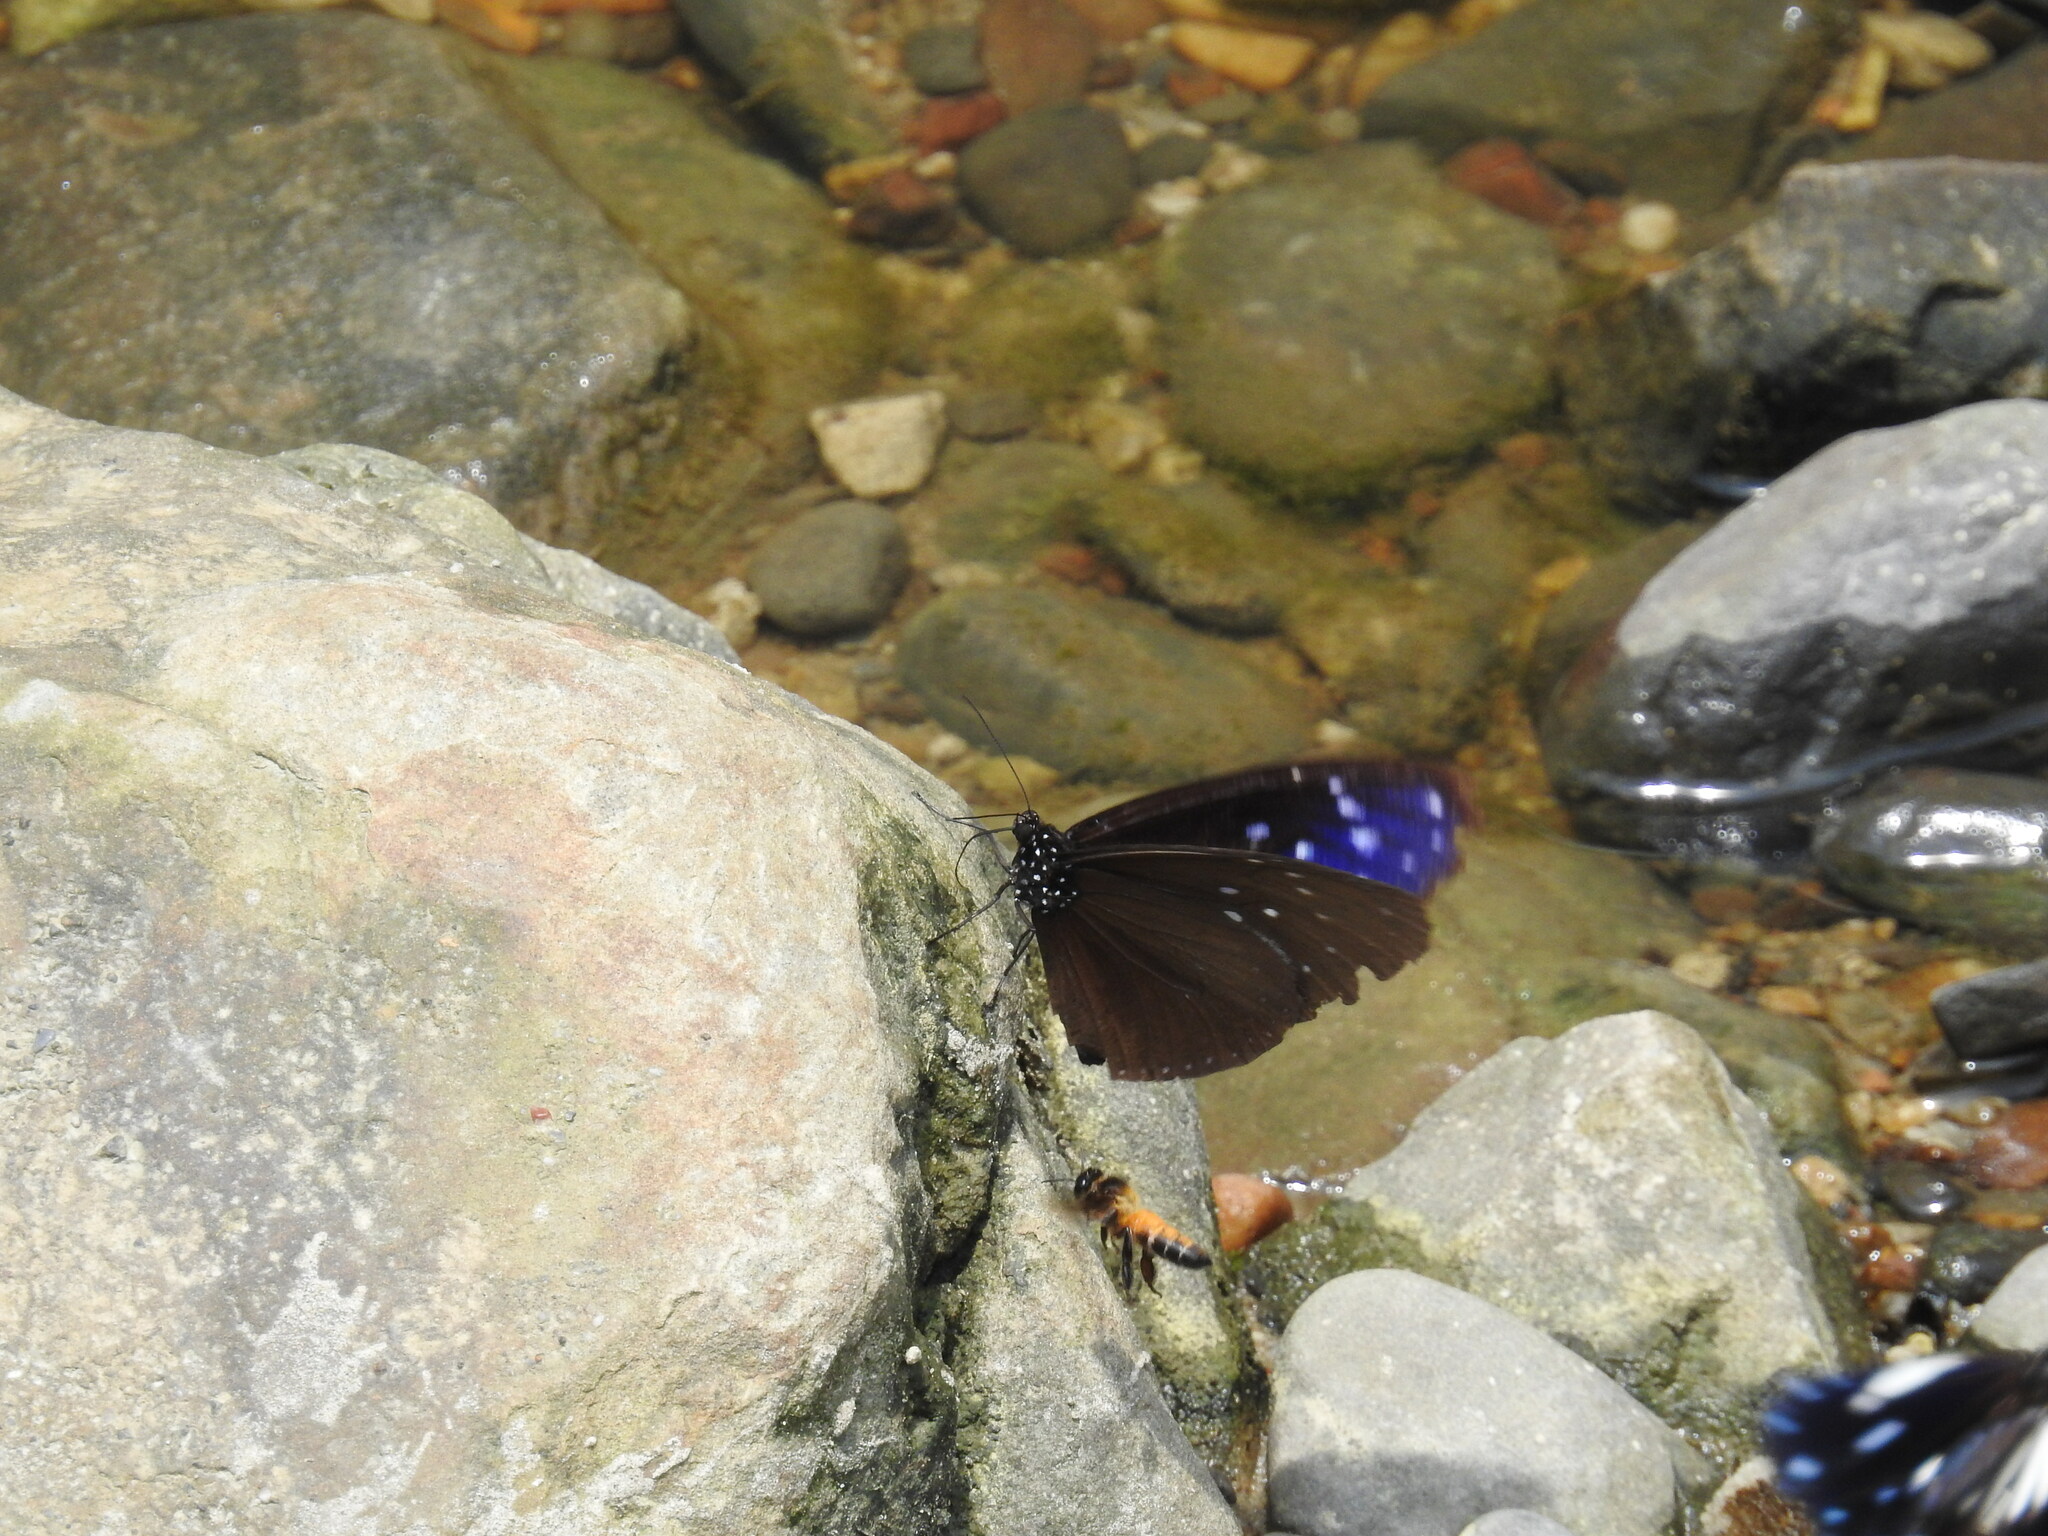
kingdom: Animalia
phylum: Arthropoda
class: Insecta
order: Lepidoptera
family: Nymphalidae
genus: Euploea
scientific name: Euploea mulciber
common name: Striped blue crow butterfly
